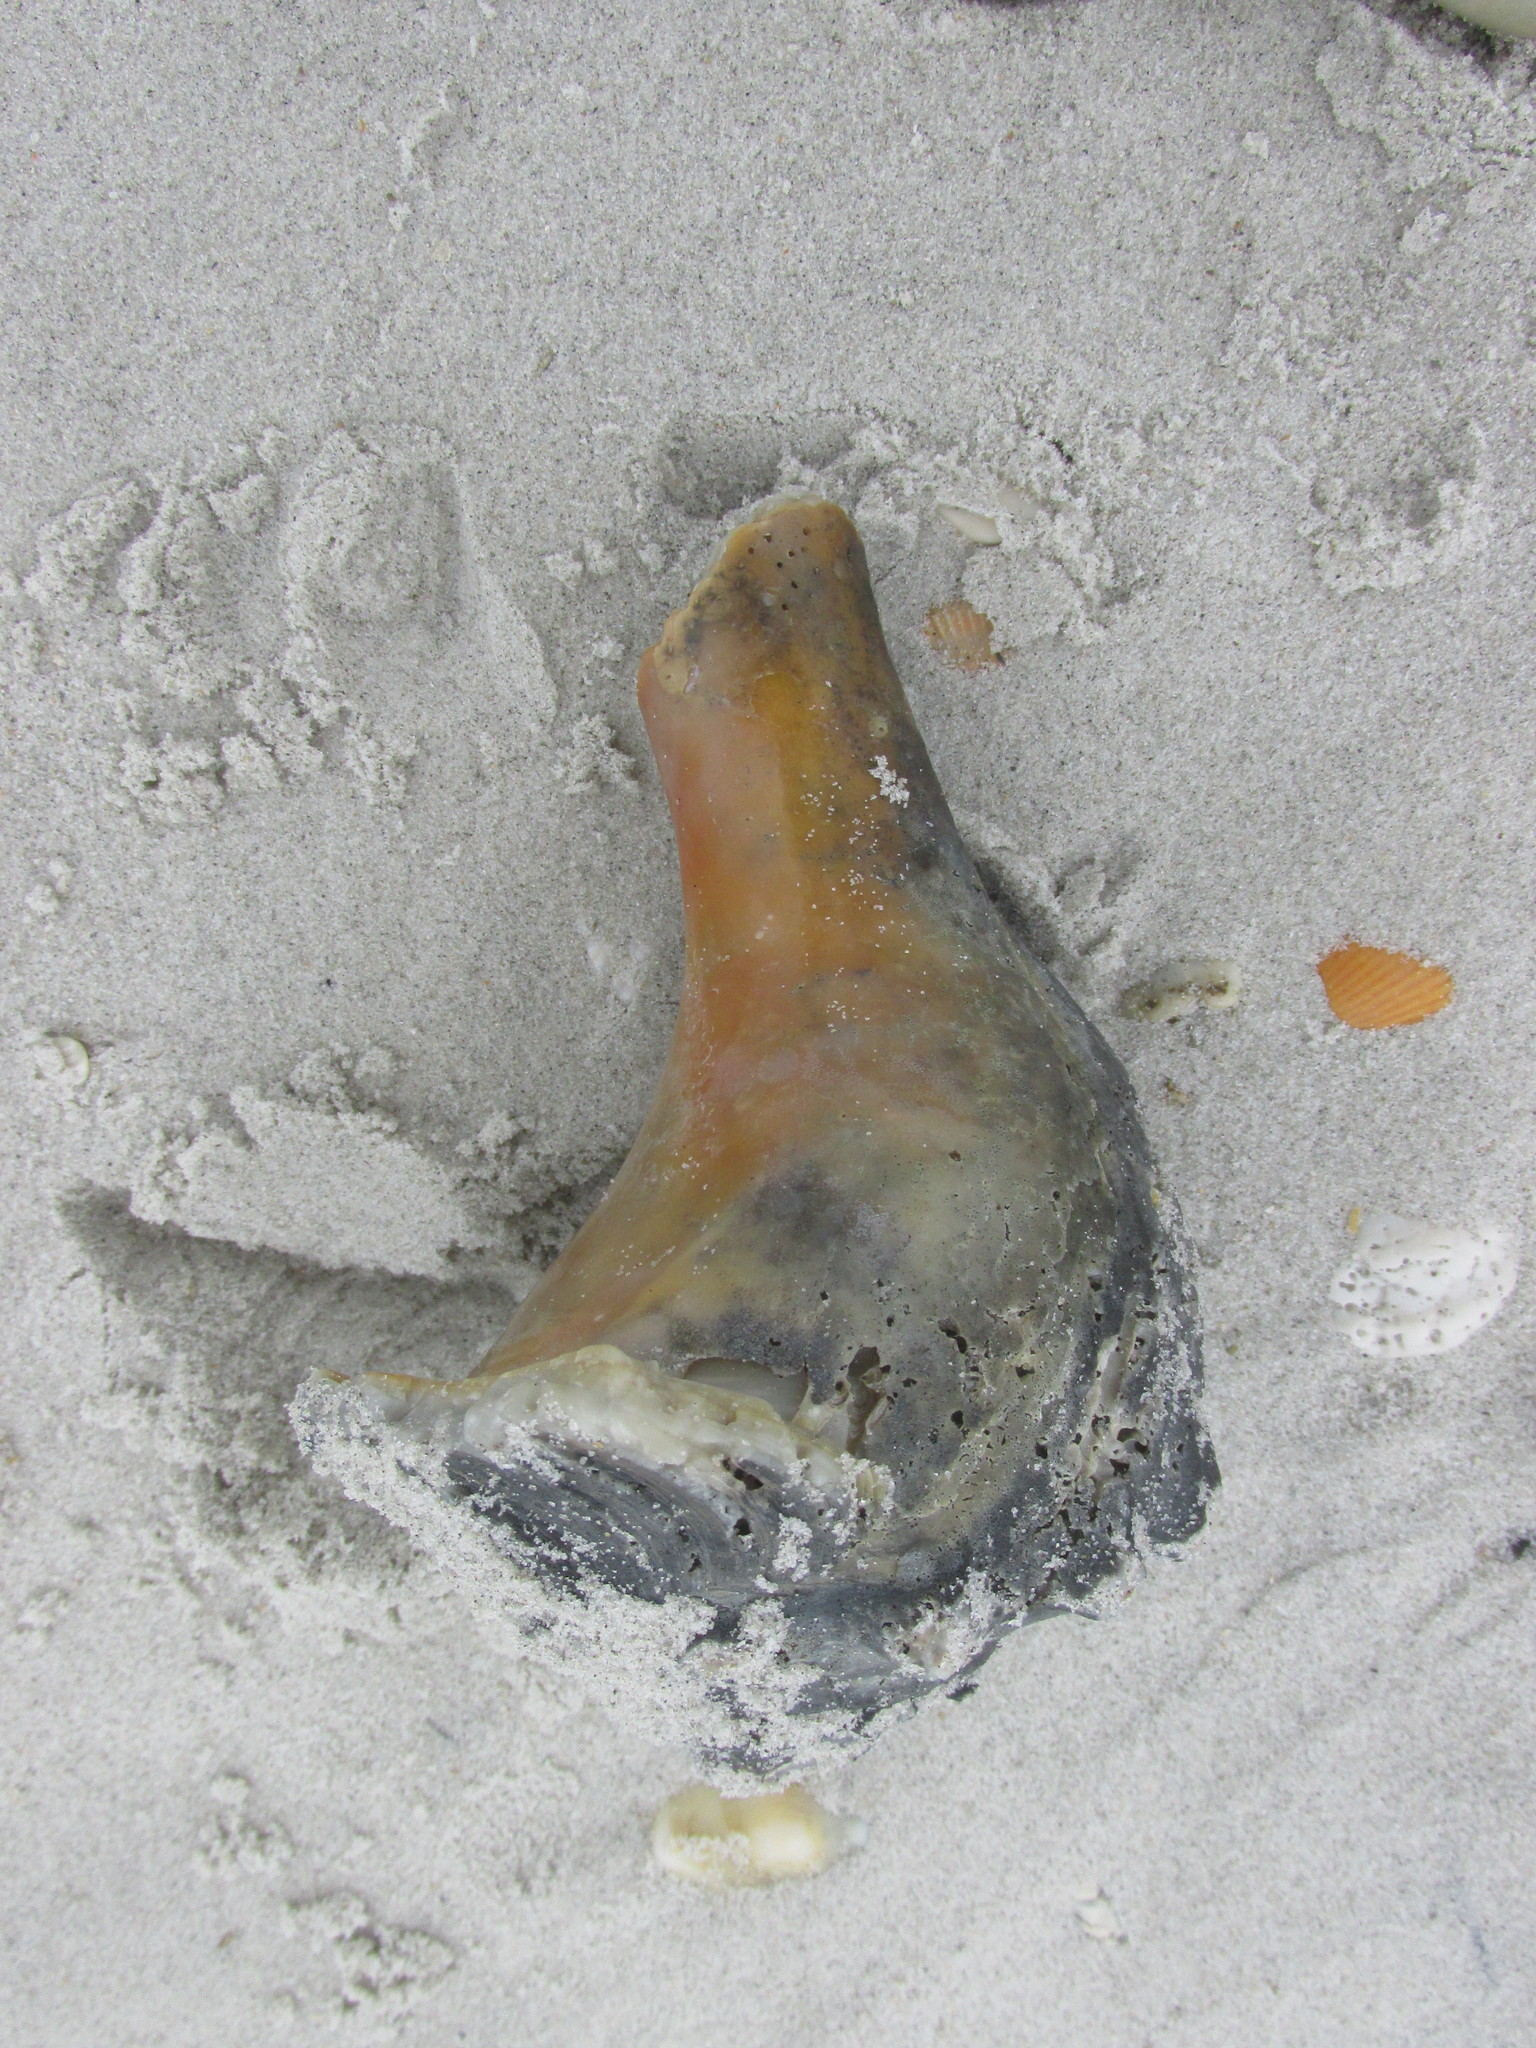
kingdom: Animalia
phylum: Mollusca
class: Gastropoda
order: Neogastropoda
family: Busyconidae
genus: Busycon
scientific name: Busycon carica
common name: Knobbed whelk
